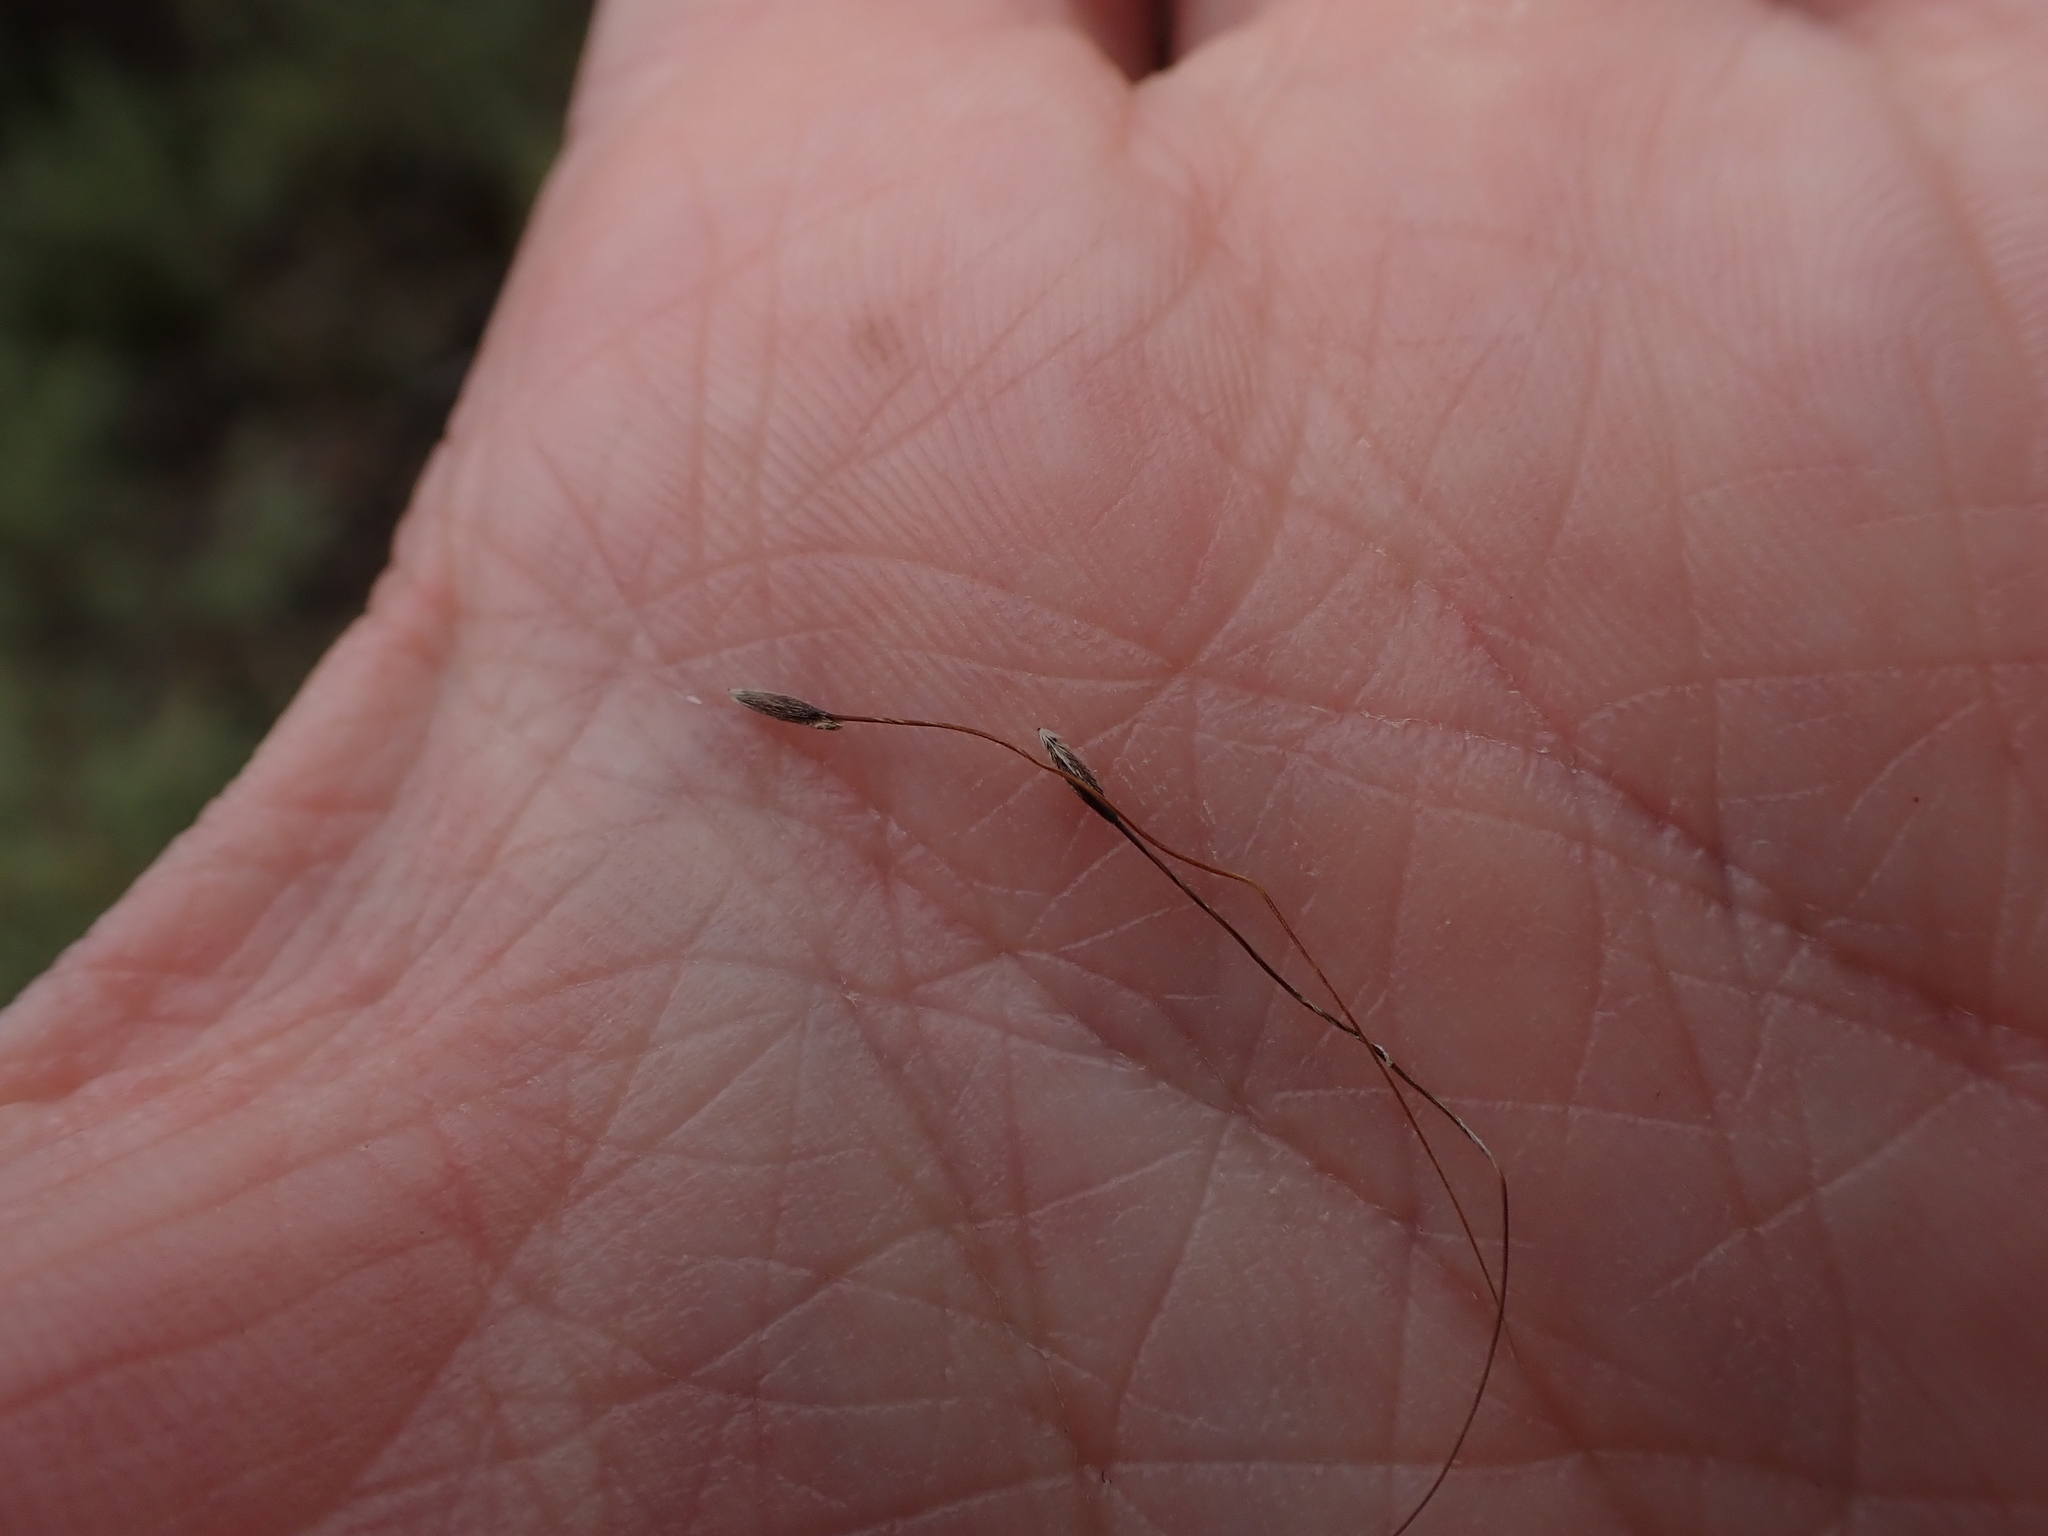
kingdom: Plantae
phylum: Tracheophyta
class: Liliopsida
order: Poales
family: Poaceae
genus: Austrostipa
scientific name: Austrostipa breviglumis
